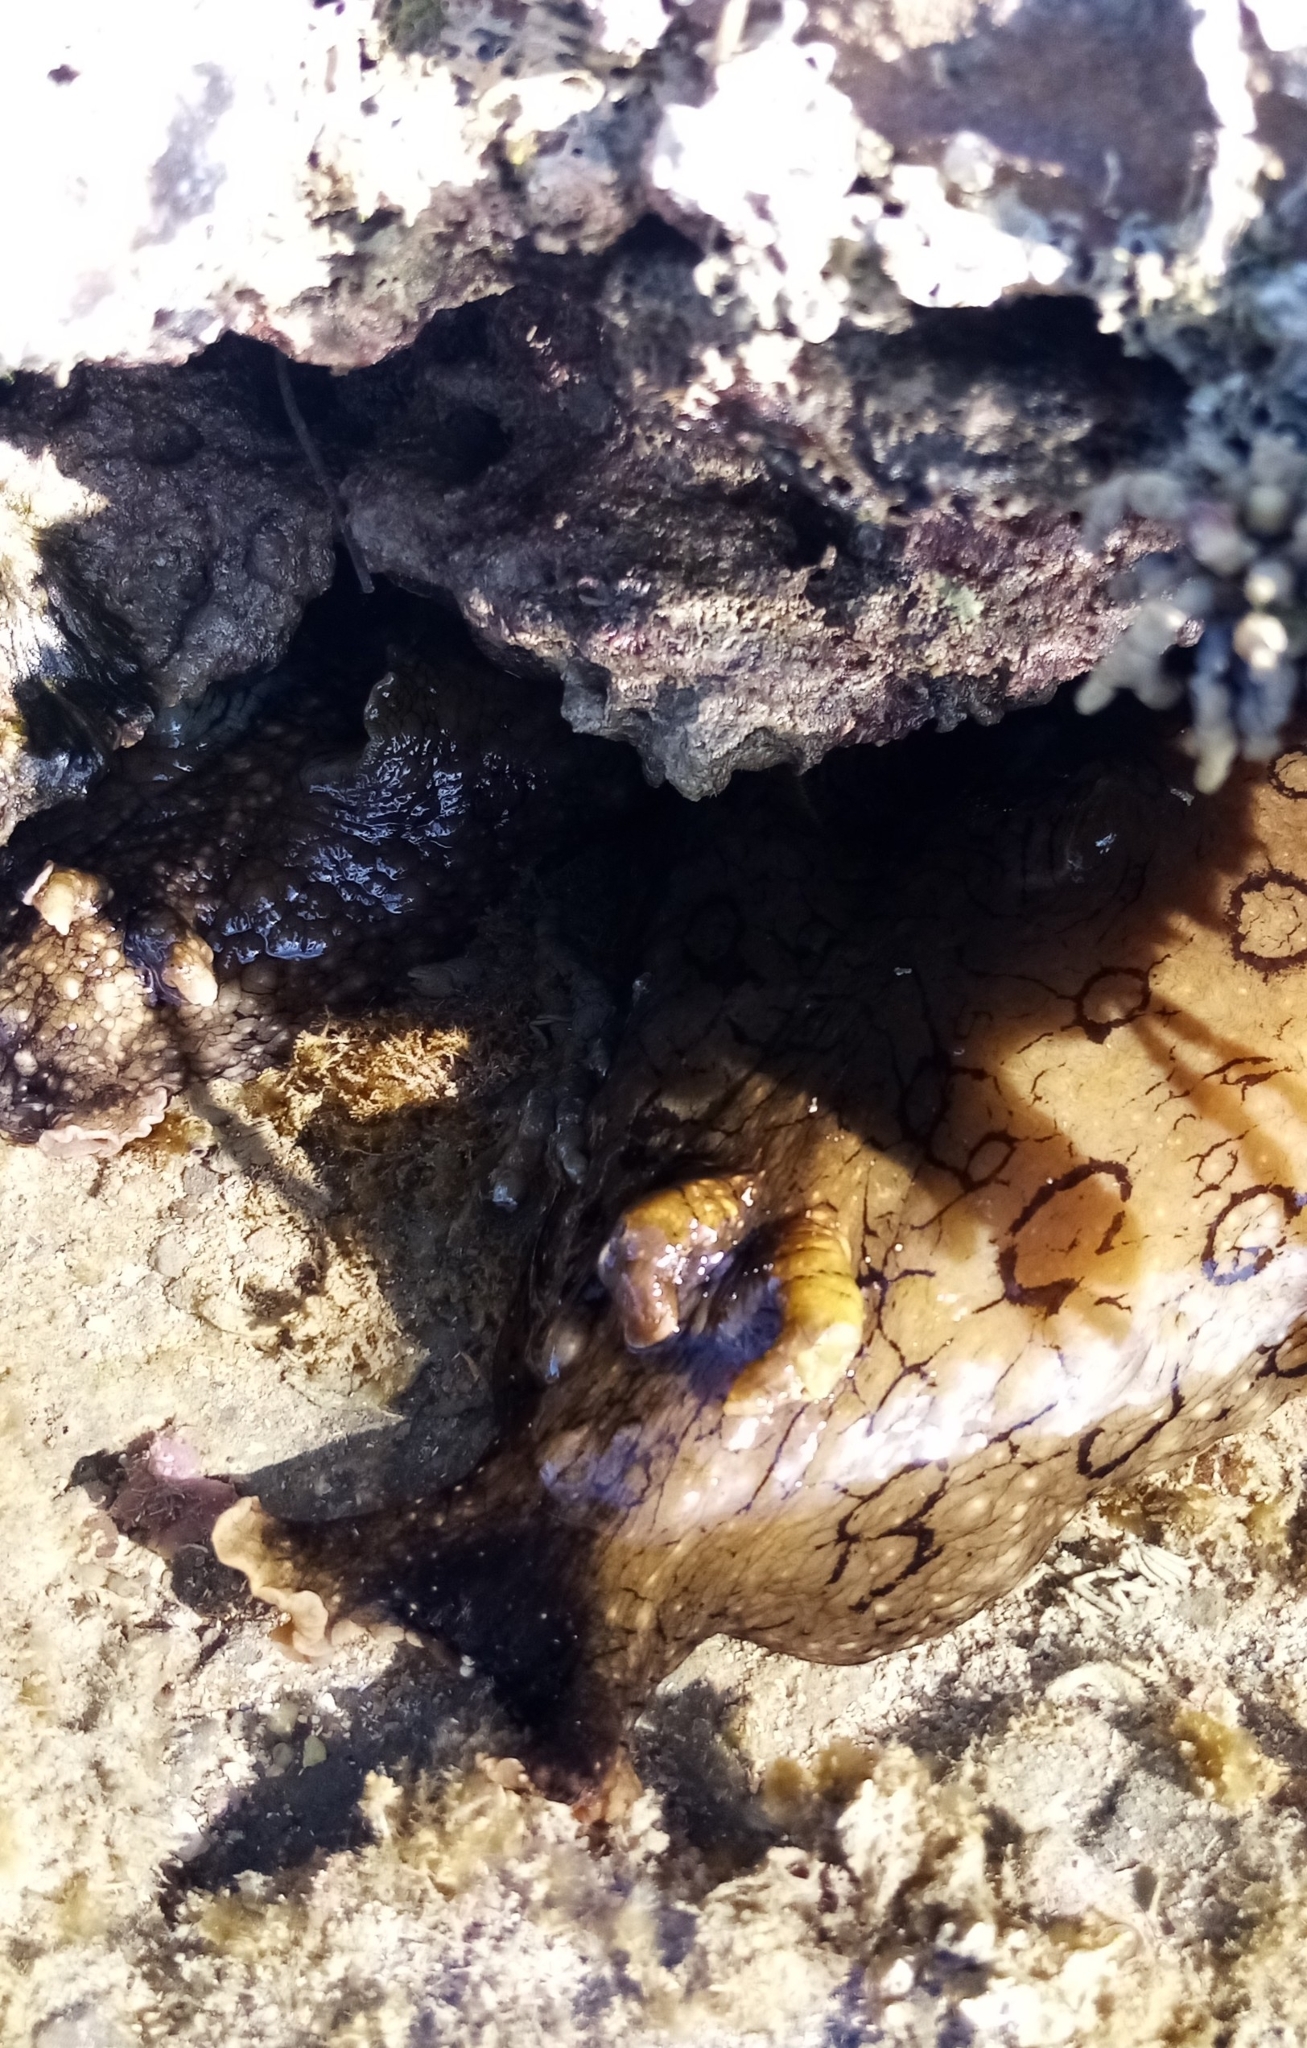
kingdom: Animalia
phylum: Mollusca
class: Gastropoda
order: Aplysiida
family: Aplysiidae
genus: Aplysia
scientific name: Aplysia argus
